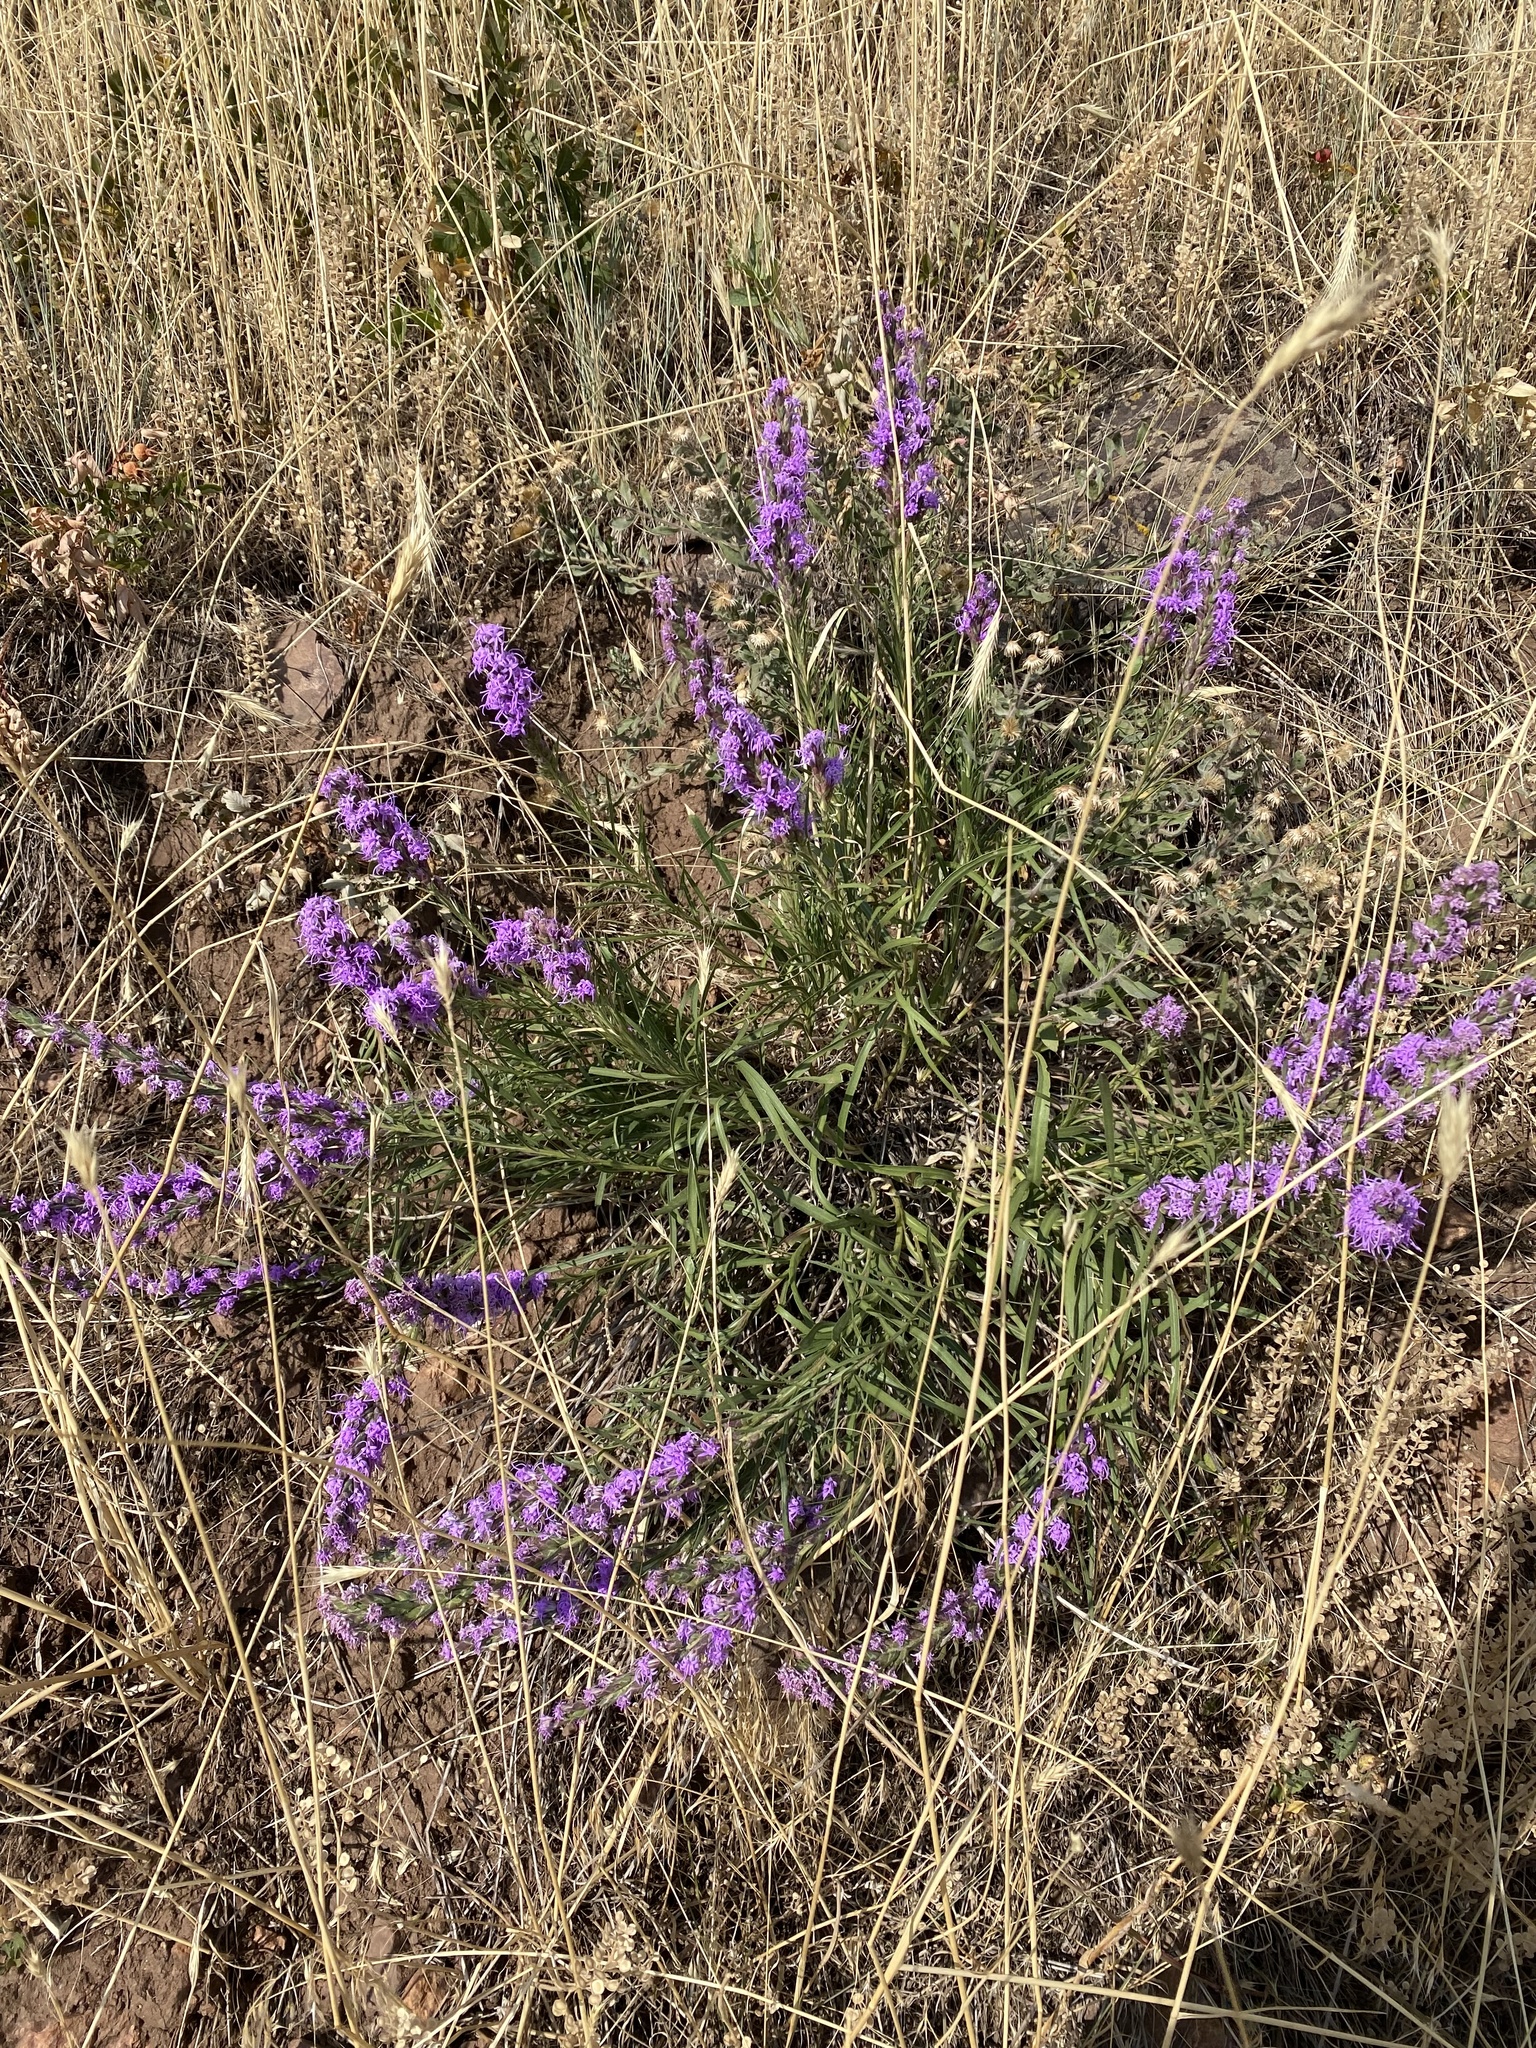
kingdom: Plantae
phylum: Tracheophyta
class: Magnoliopsida
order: Asterales
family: Asteraceae
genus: Liatris
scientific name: Liatris punctata
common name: Dotted gayfeather
